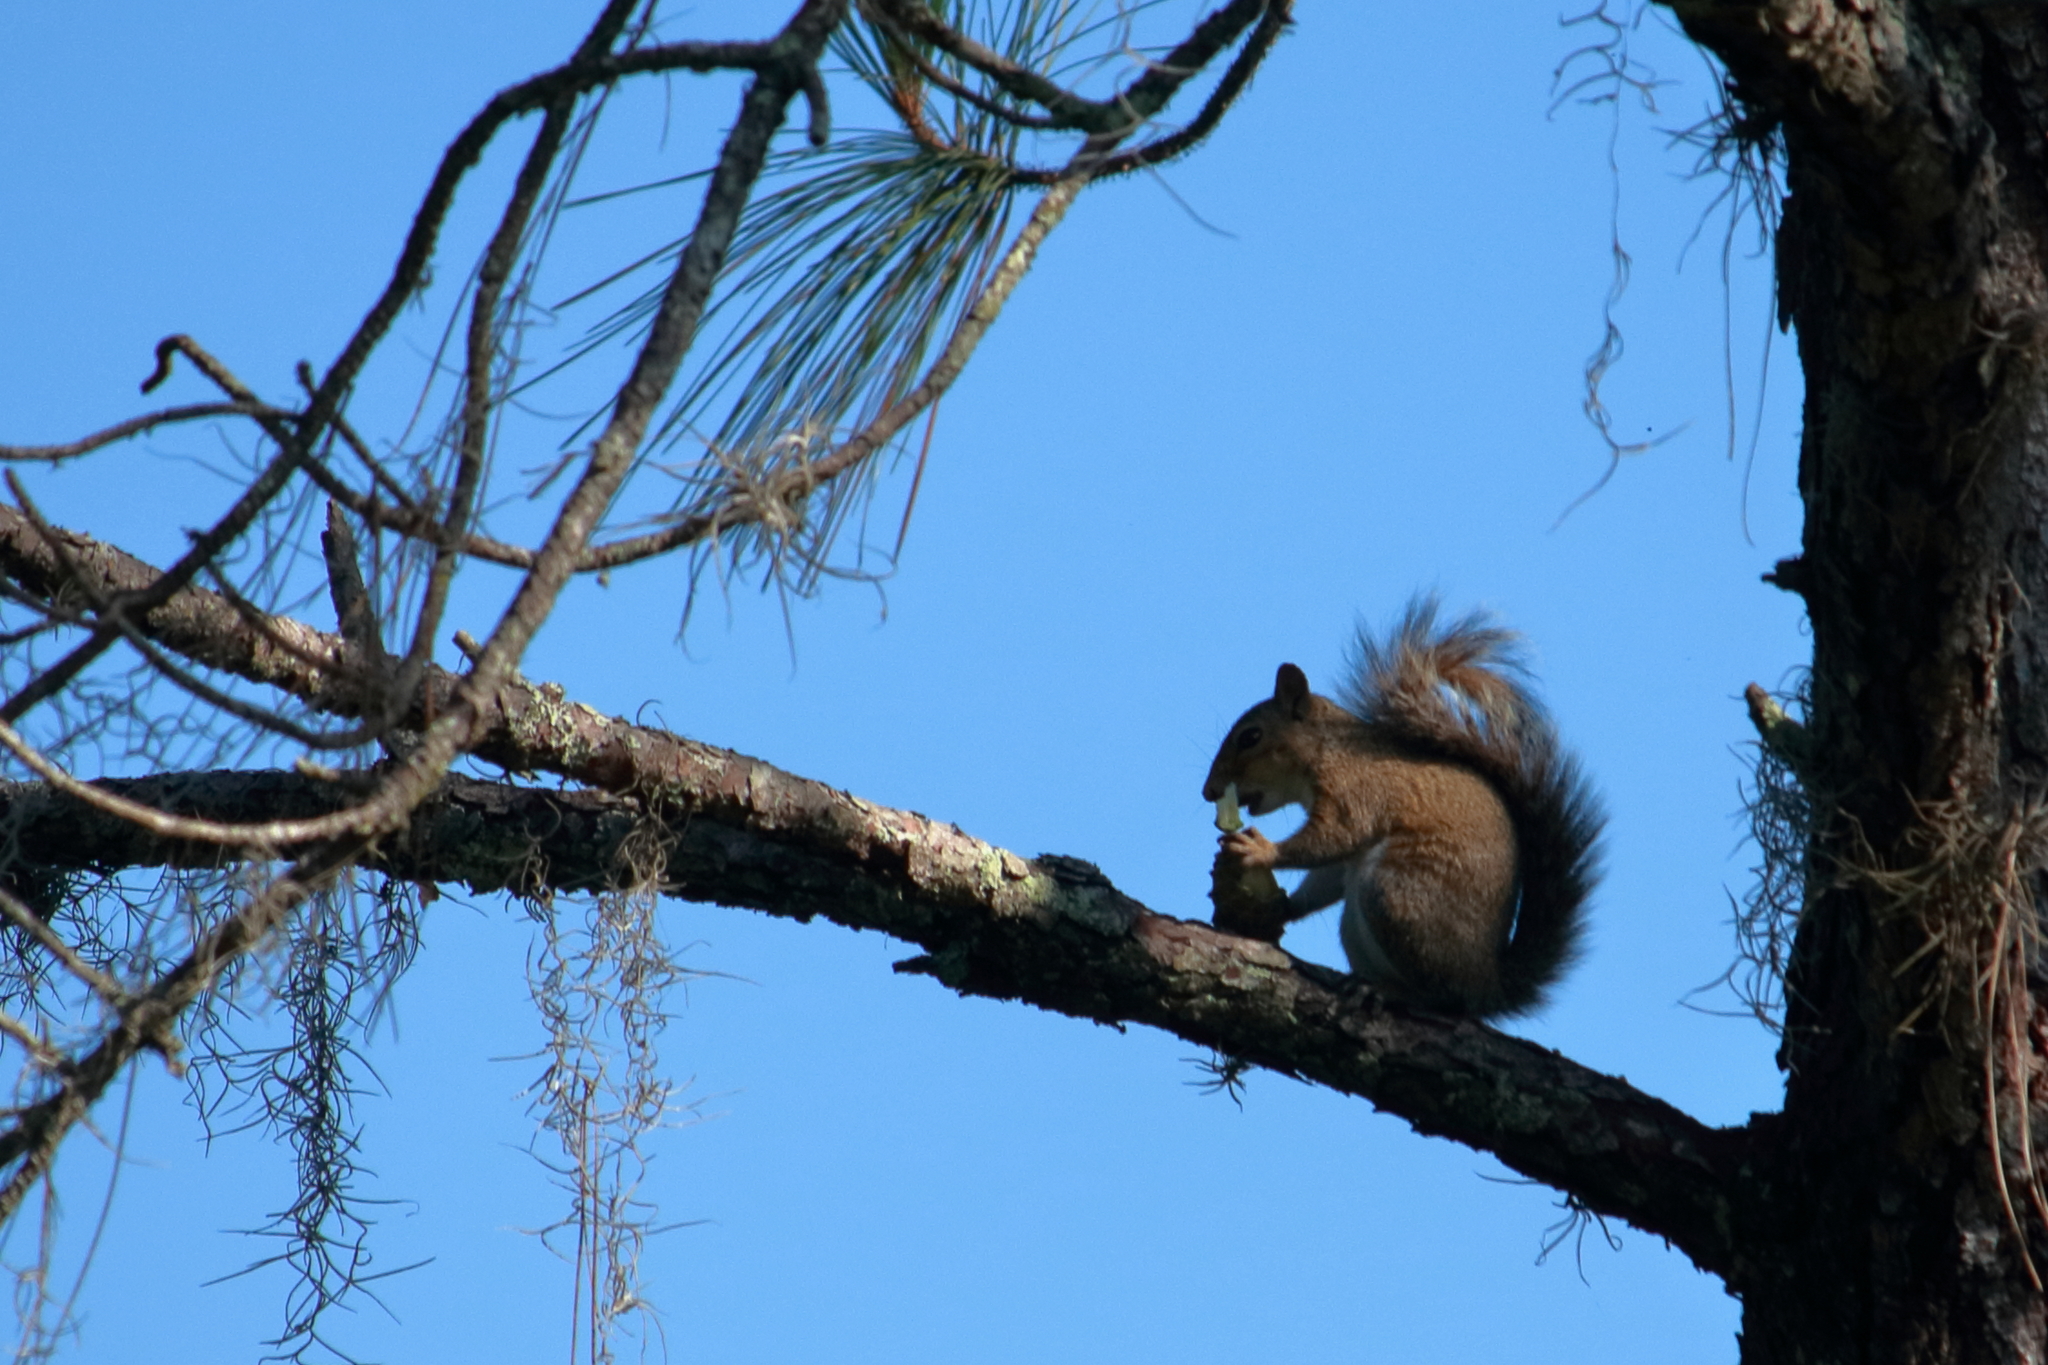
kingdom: Animalia
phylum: Chordata
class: Mammalia
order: Rodentia
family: Sciuridae
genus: Sciurus
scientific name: Sciurus carolinensis
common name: Eastern gray squirrel
